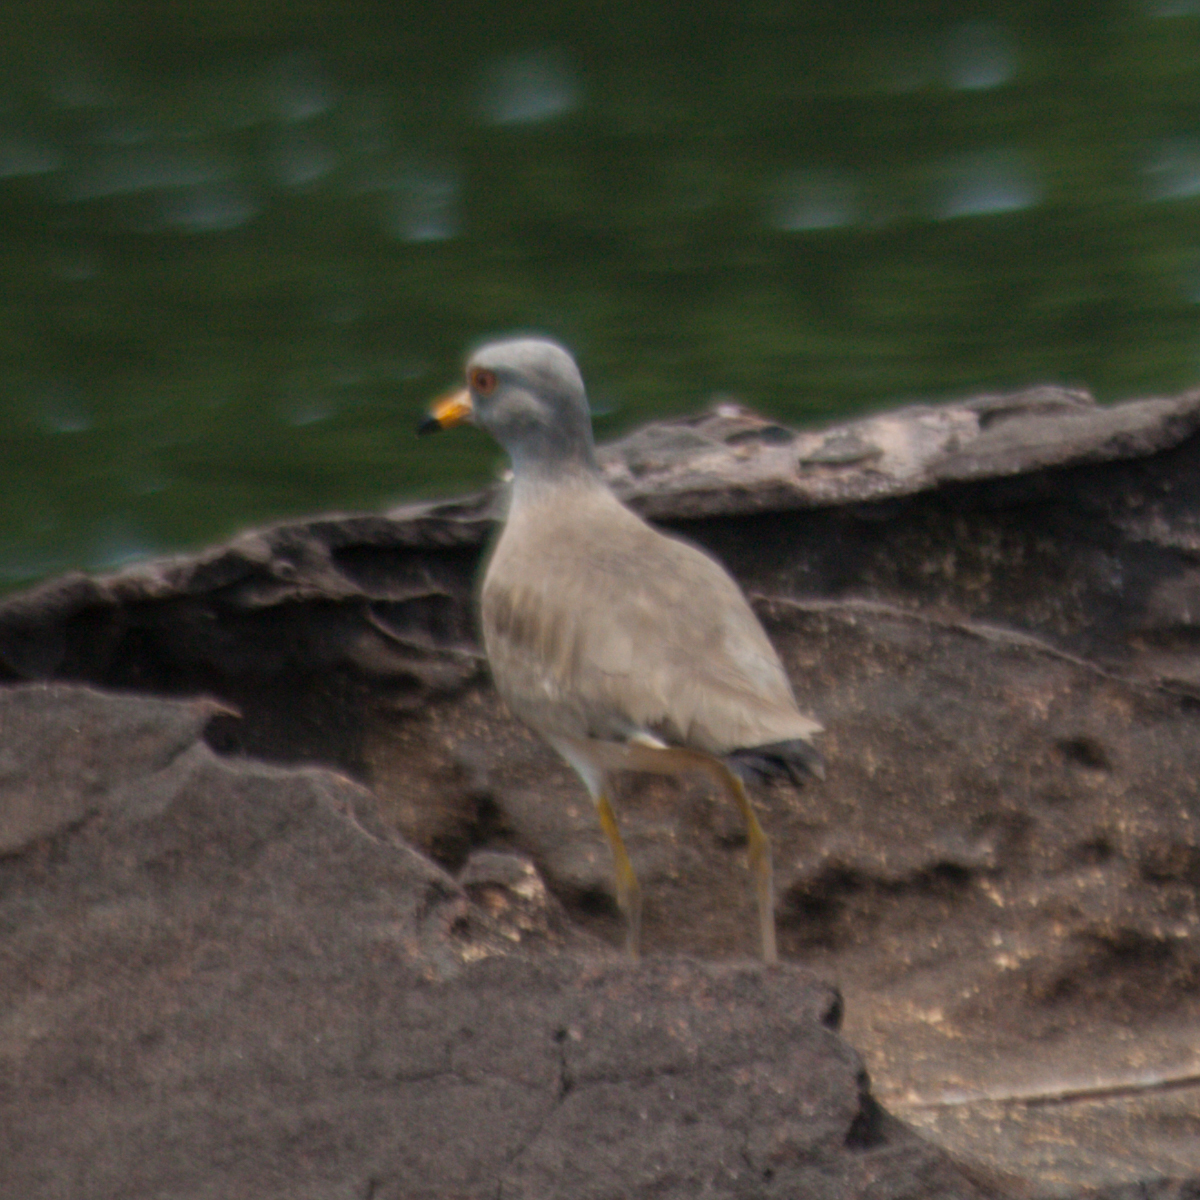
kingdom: Animalia
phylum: Chordata
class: Aves
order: Charadriiformes
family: Charadriidae
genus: Vanellus
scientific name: Vanellus cinereus
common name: Grey-headed lapwing
